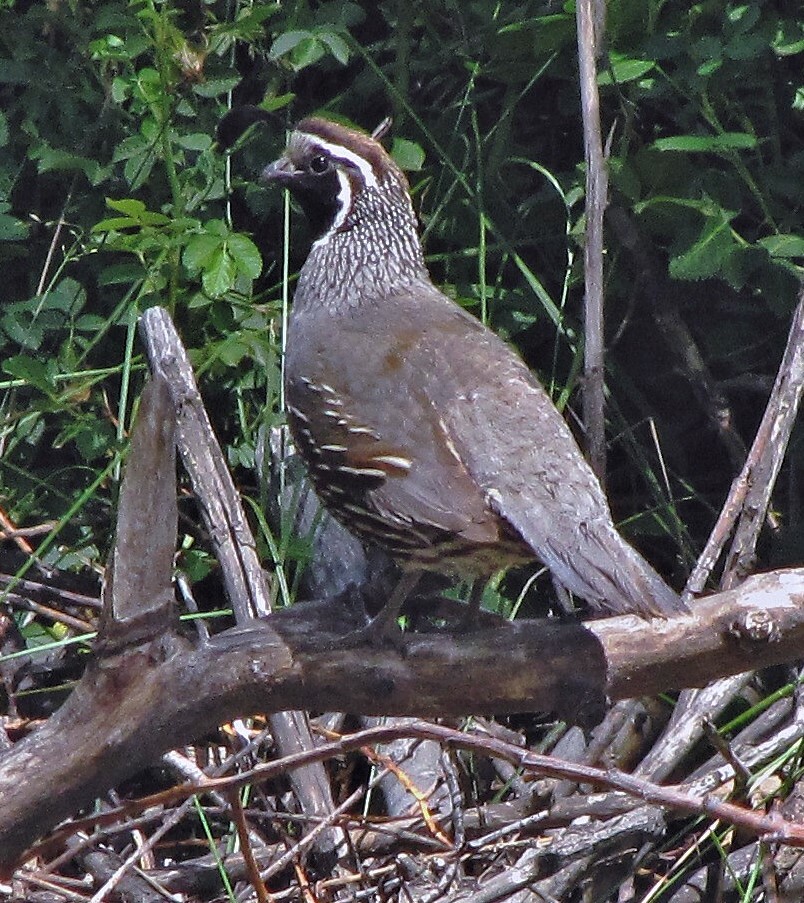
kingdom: Animalia
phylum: Chordata
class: Aves
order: Galliformes
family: Odontophoridae
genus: Callipepla
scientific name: Callipepla californica
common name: California quail
